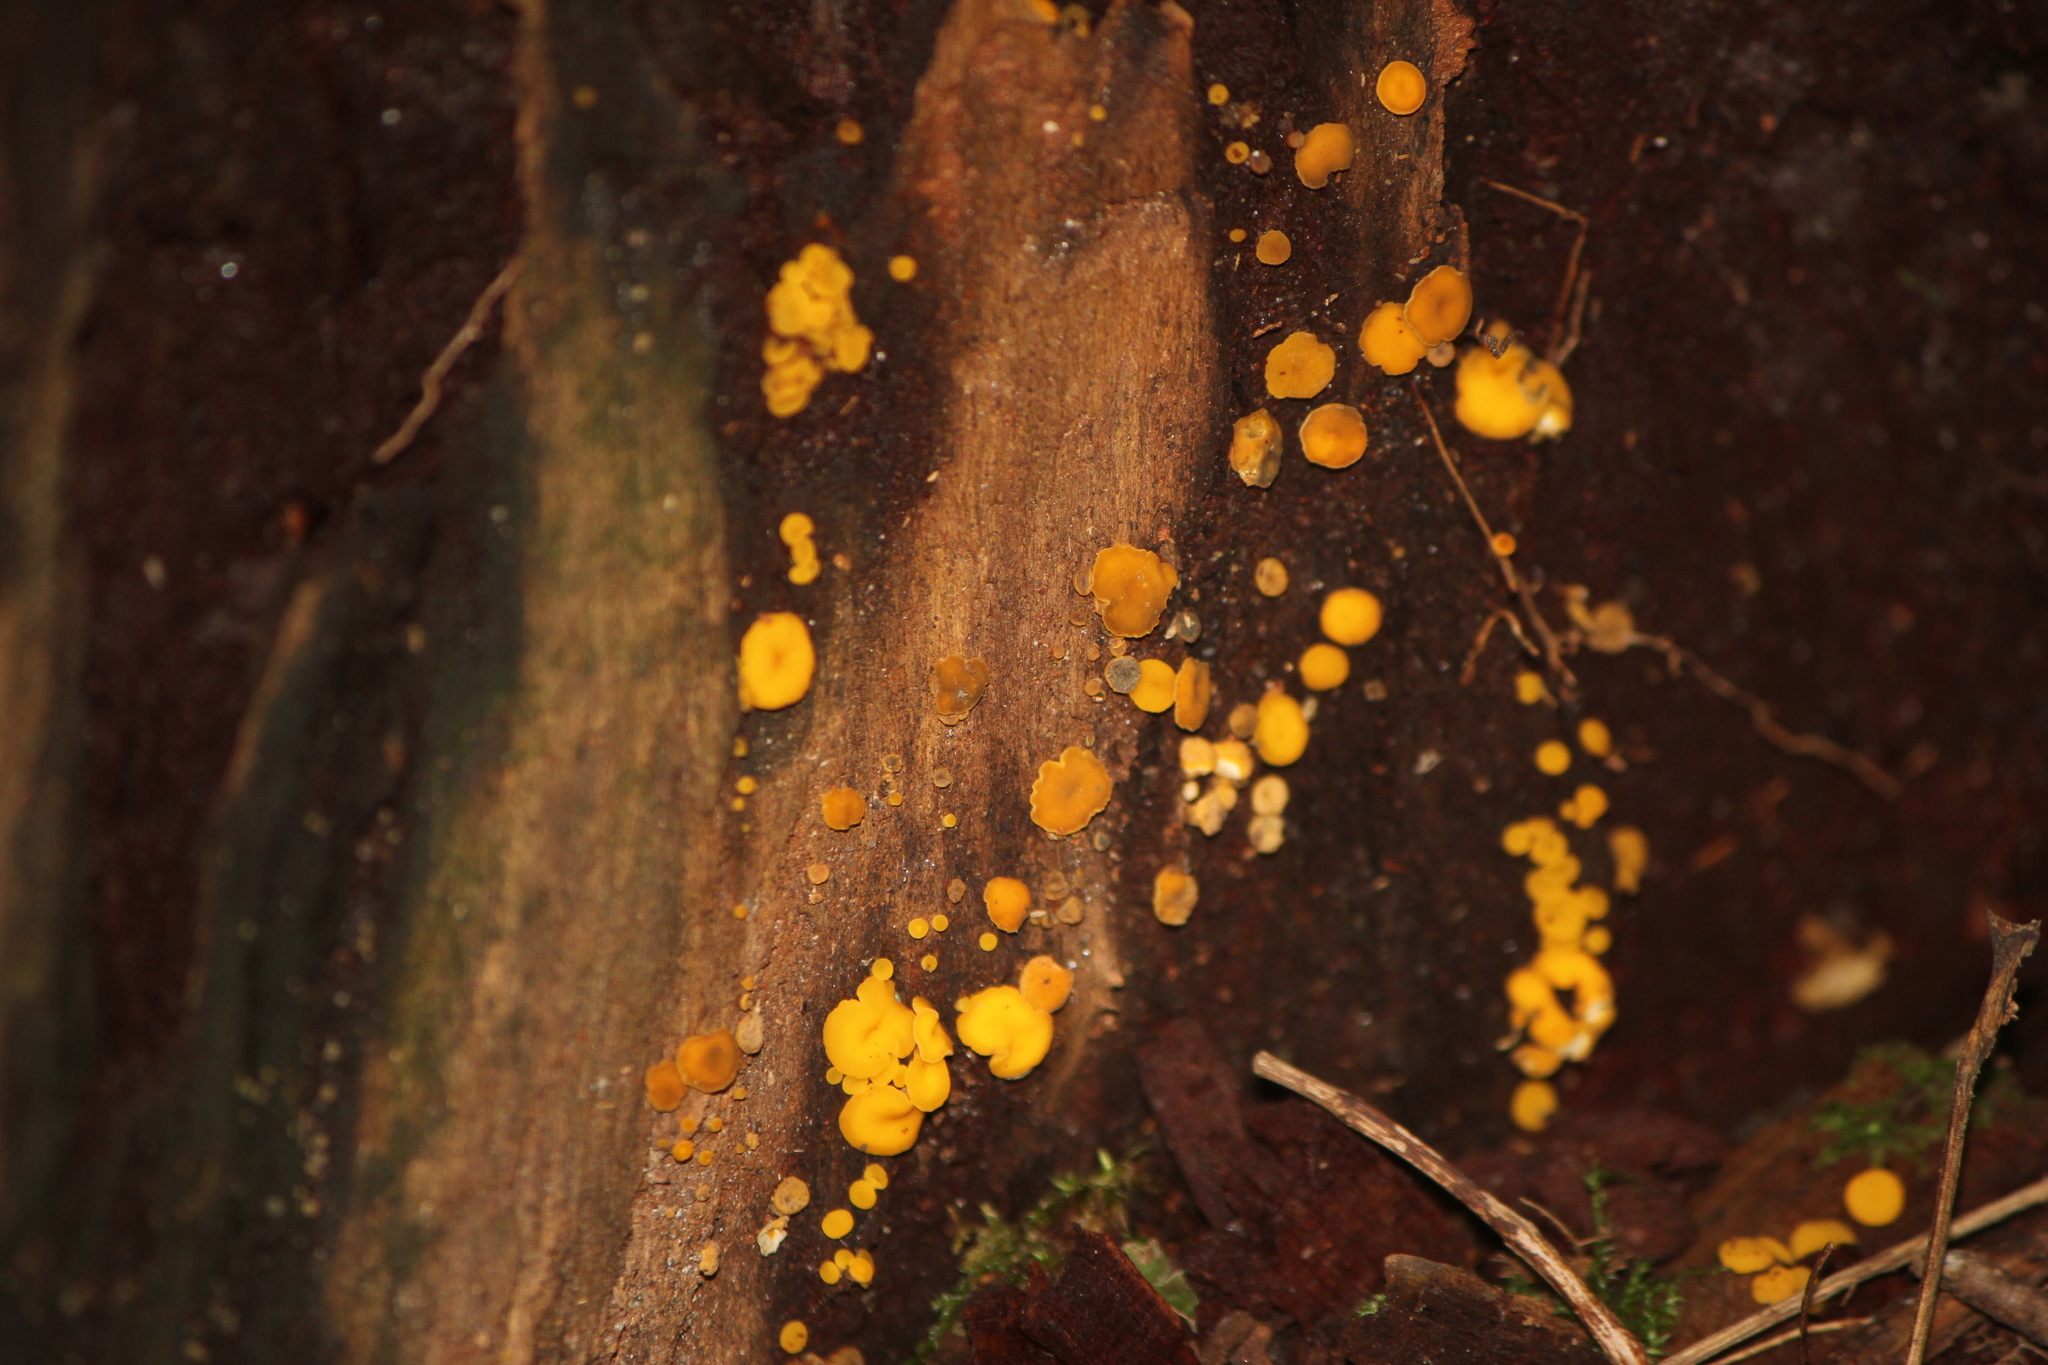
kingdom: Fungi
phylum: Ascomycota
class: Leotiomycetes
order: Helotiales
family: Pezizellaceae
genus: Calycina
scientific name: Calycina citrina
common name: Yellow fairy cups
